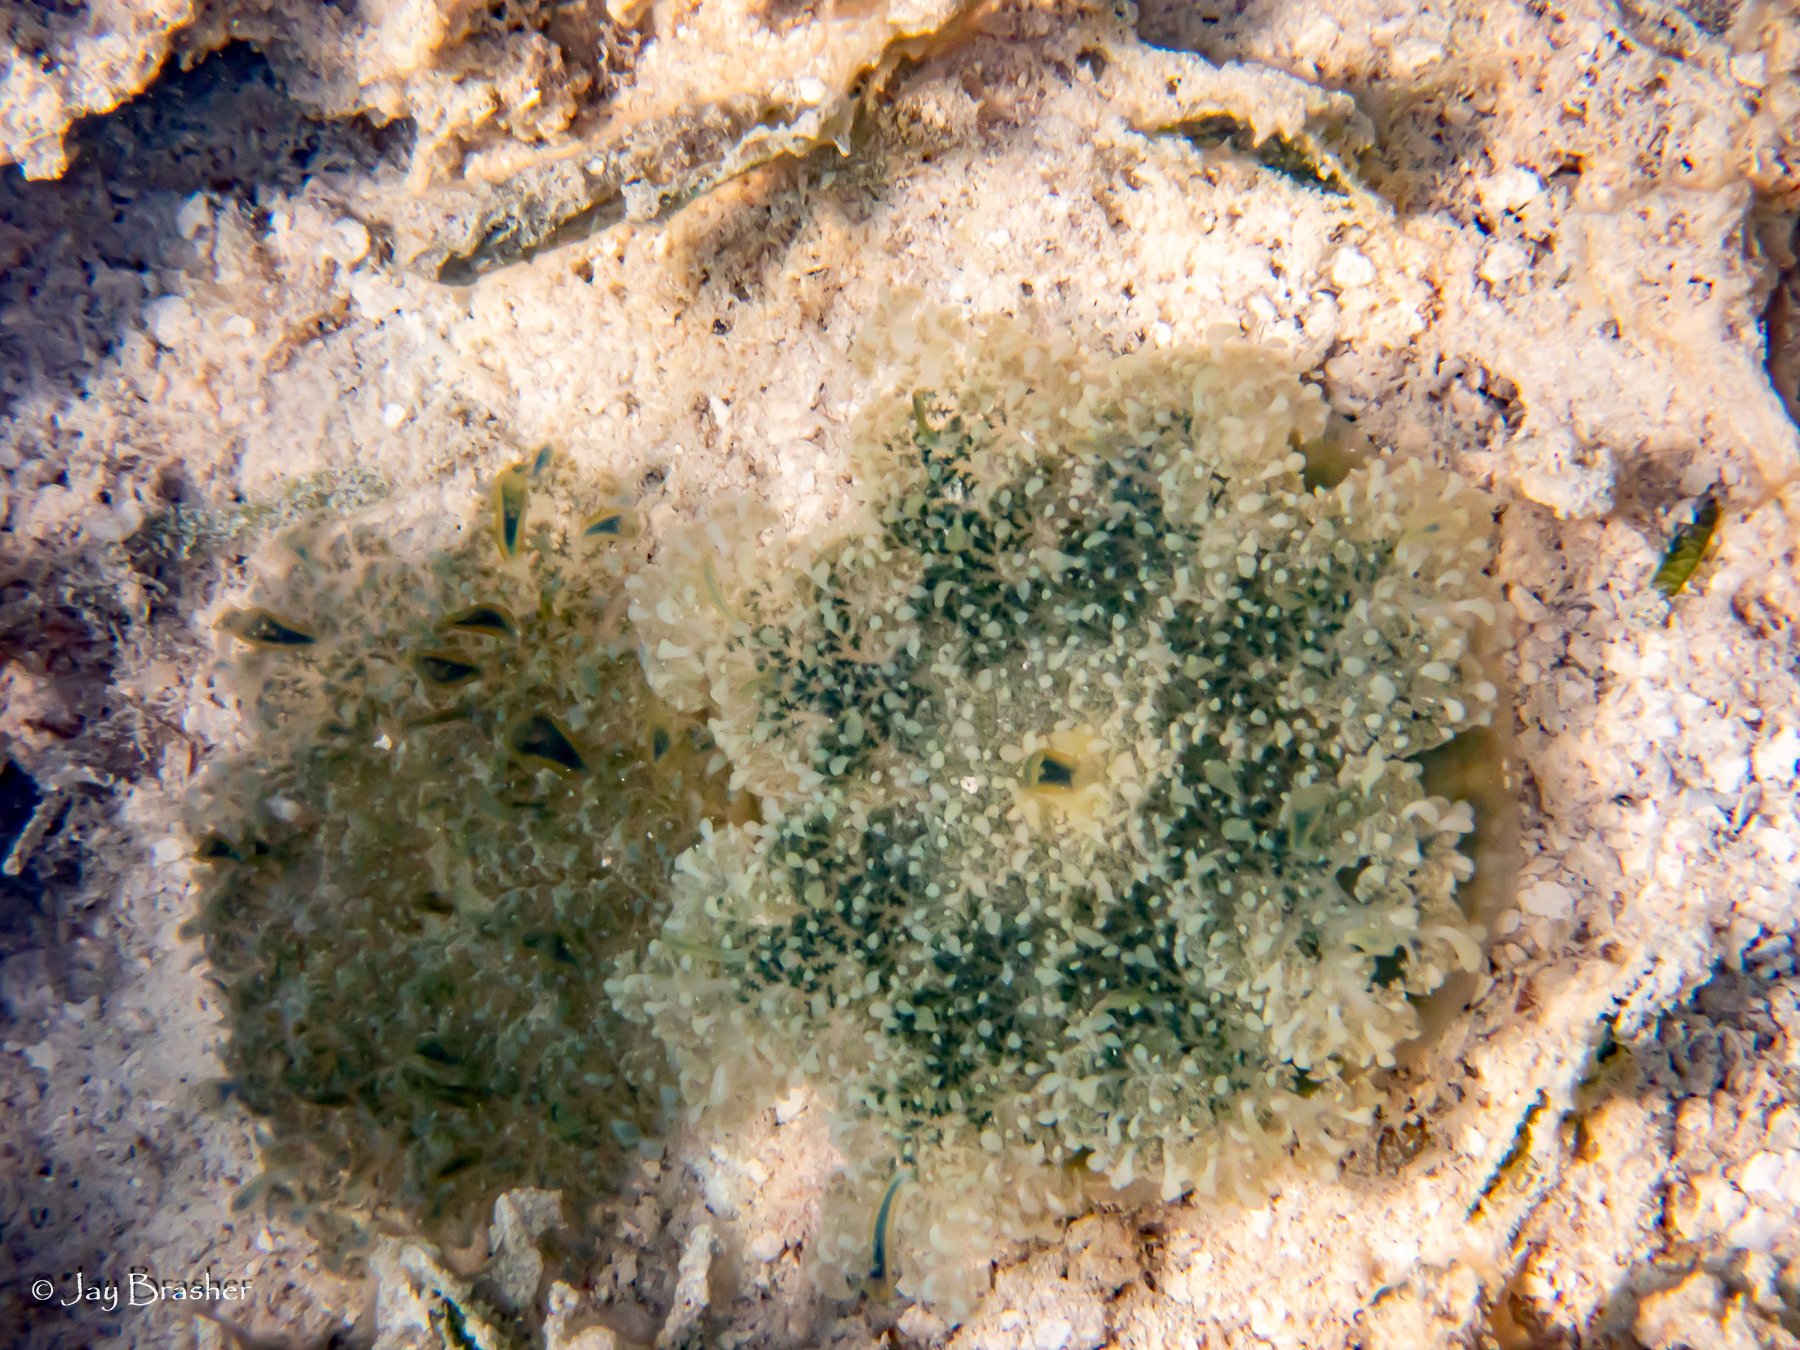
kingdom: Animalia
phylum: Cnidaria
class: Scyphozoa
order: Rhizostomeae
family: Cassiopeidae
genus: Cassiopea
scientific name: Cassiopea andromeda
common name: Upside-down jellyfish
